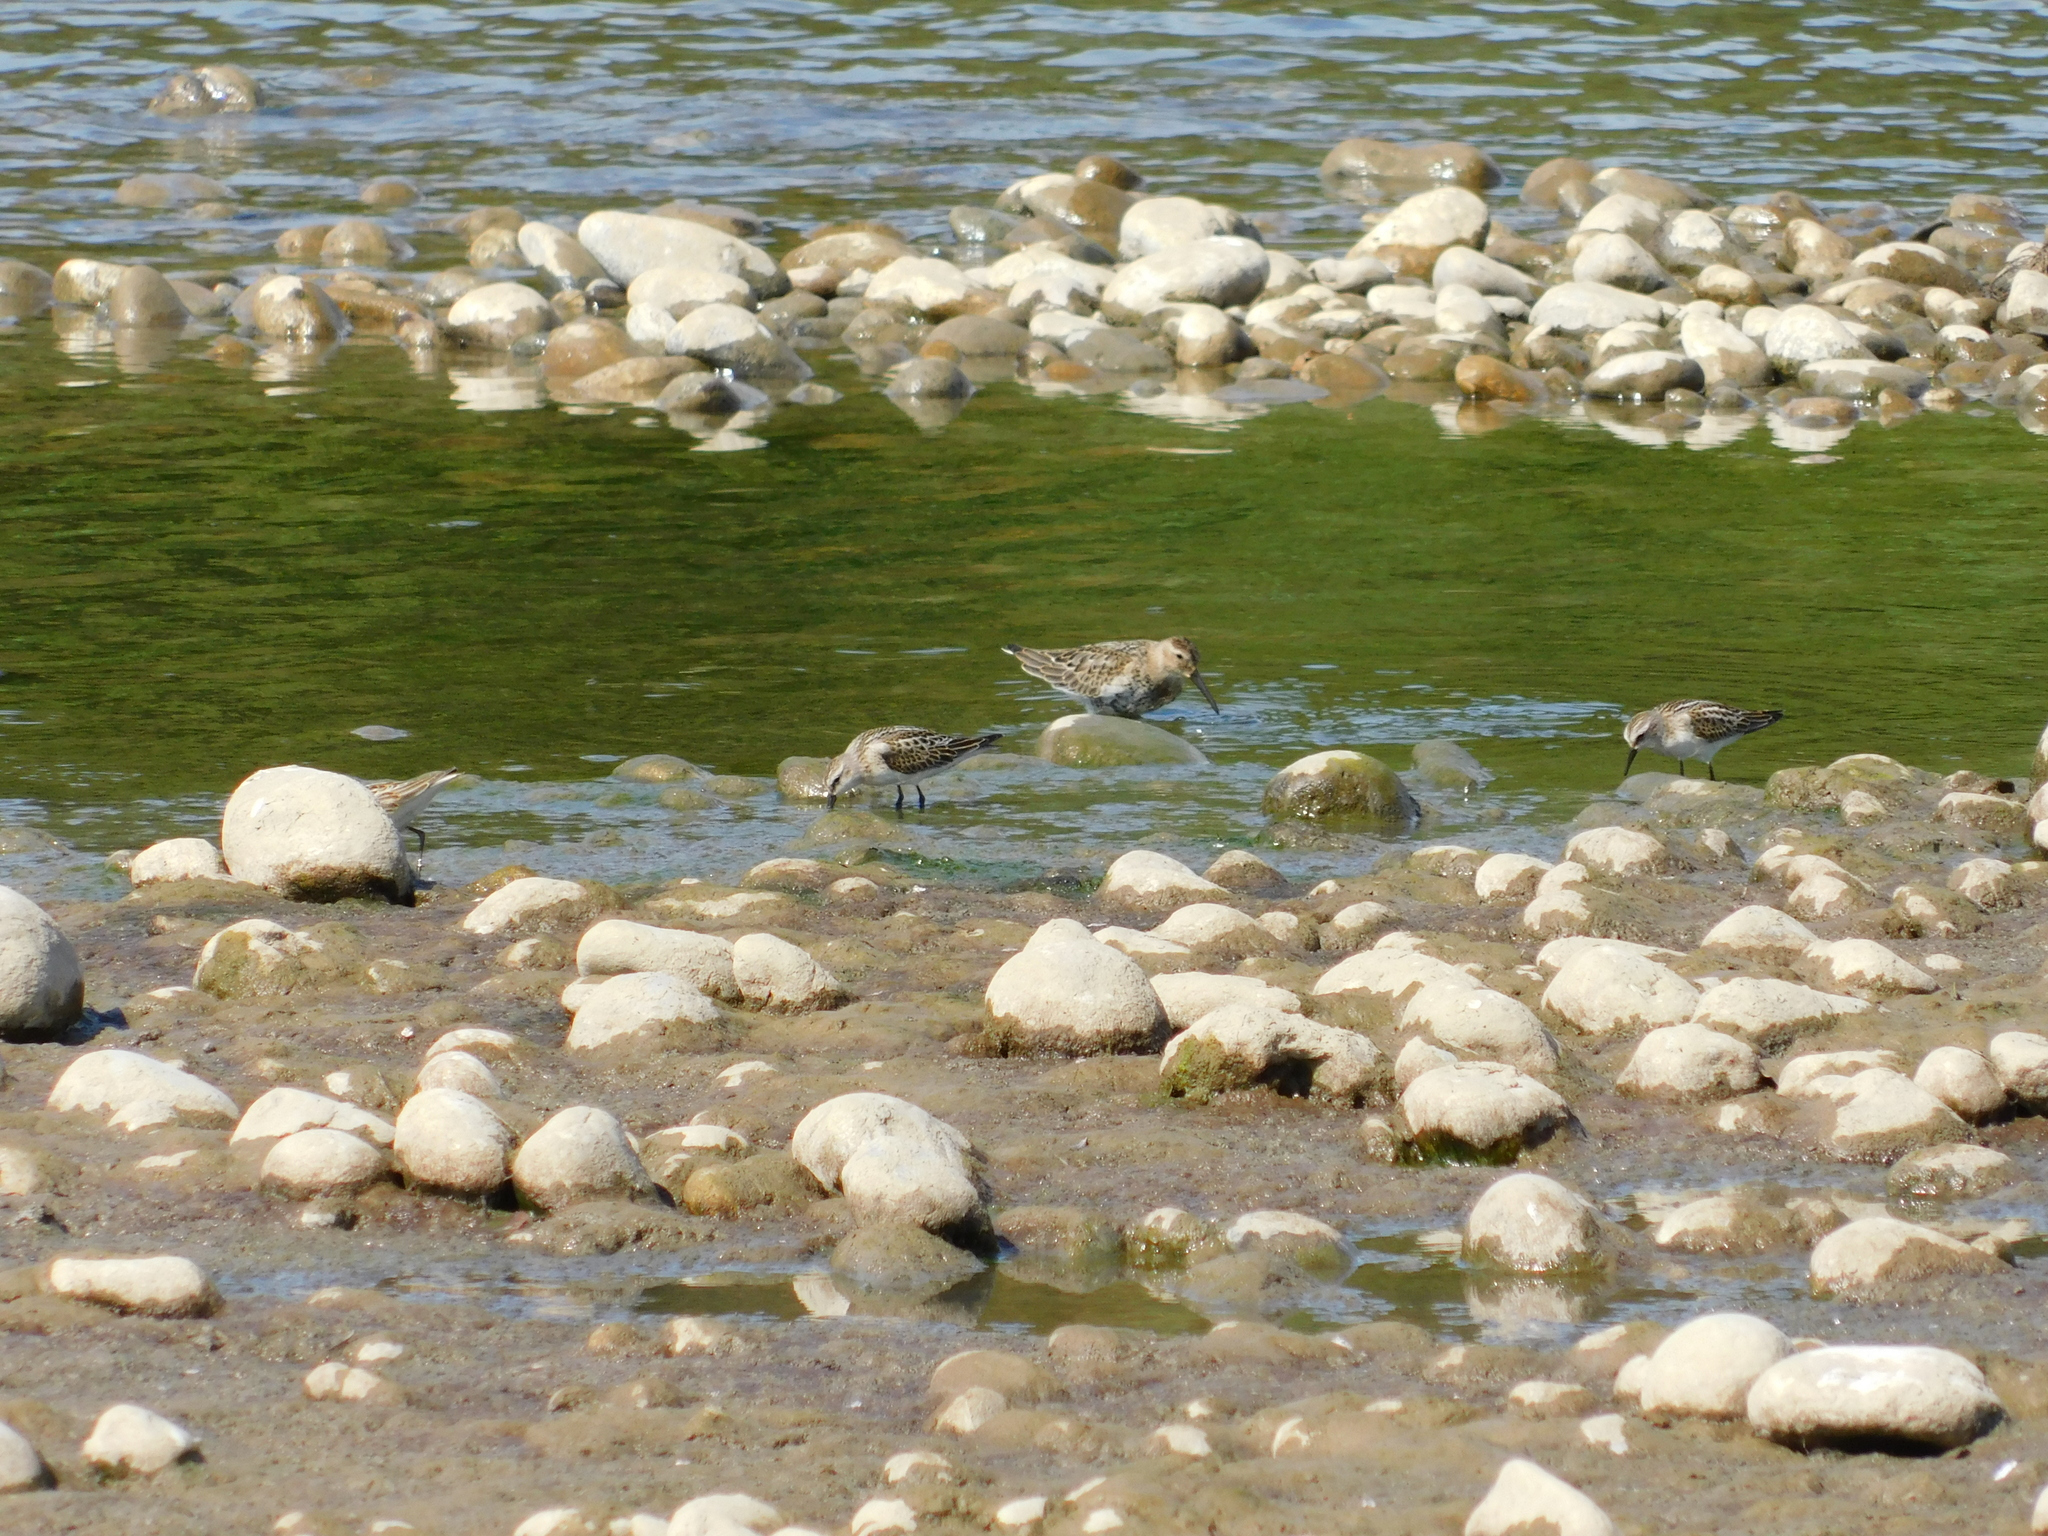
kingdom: Animalia
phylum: Chordata
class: Aves
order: Charadriiformes
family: Scolopacidae
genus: Calidris
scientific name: Calidris alpina
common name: Dunlin
